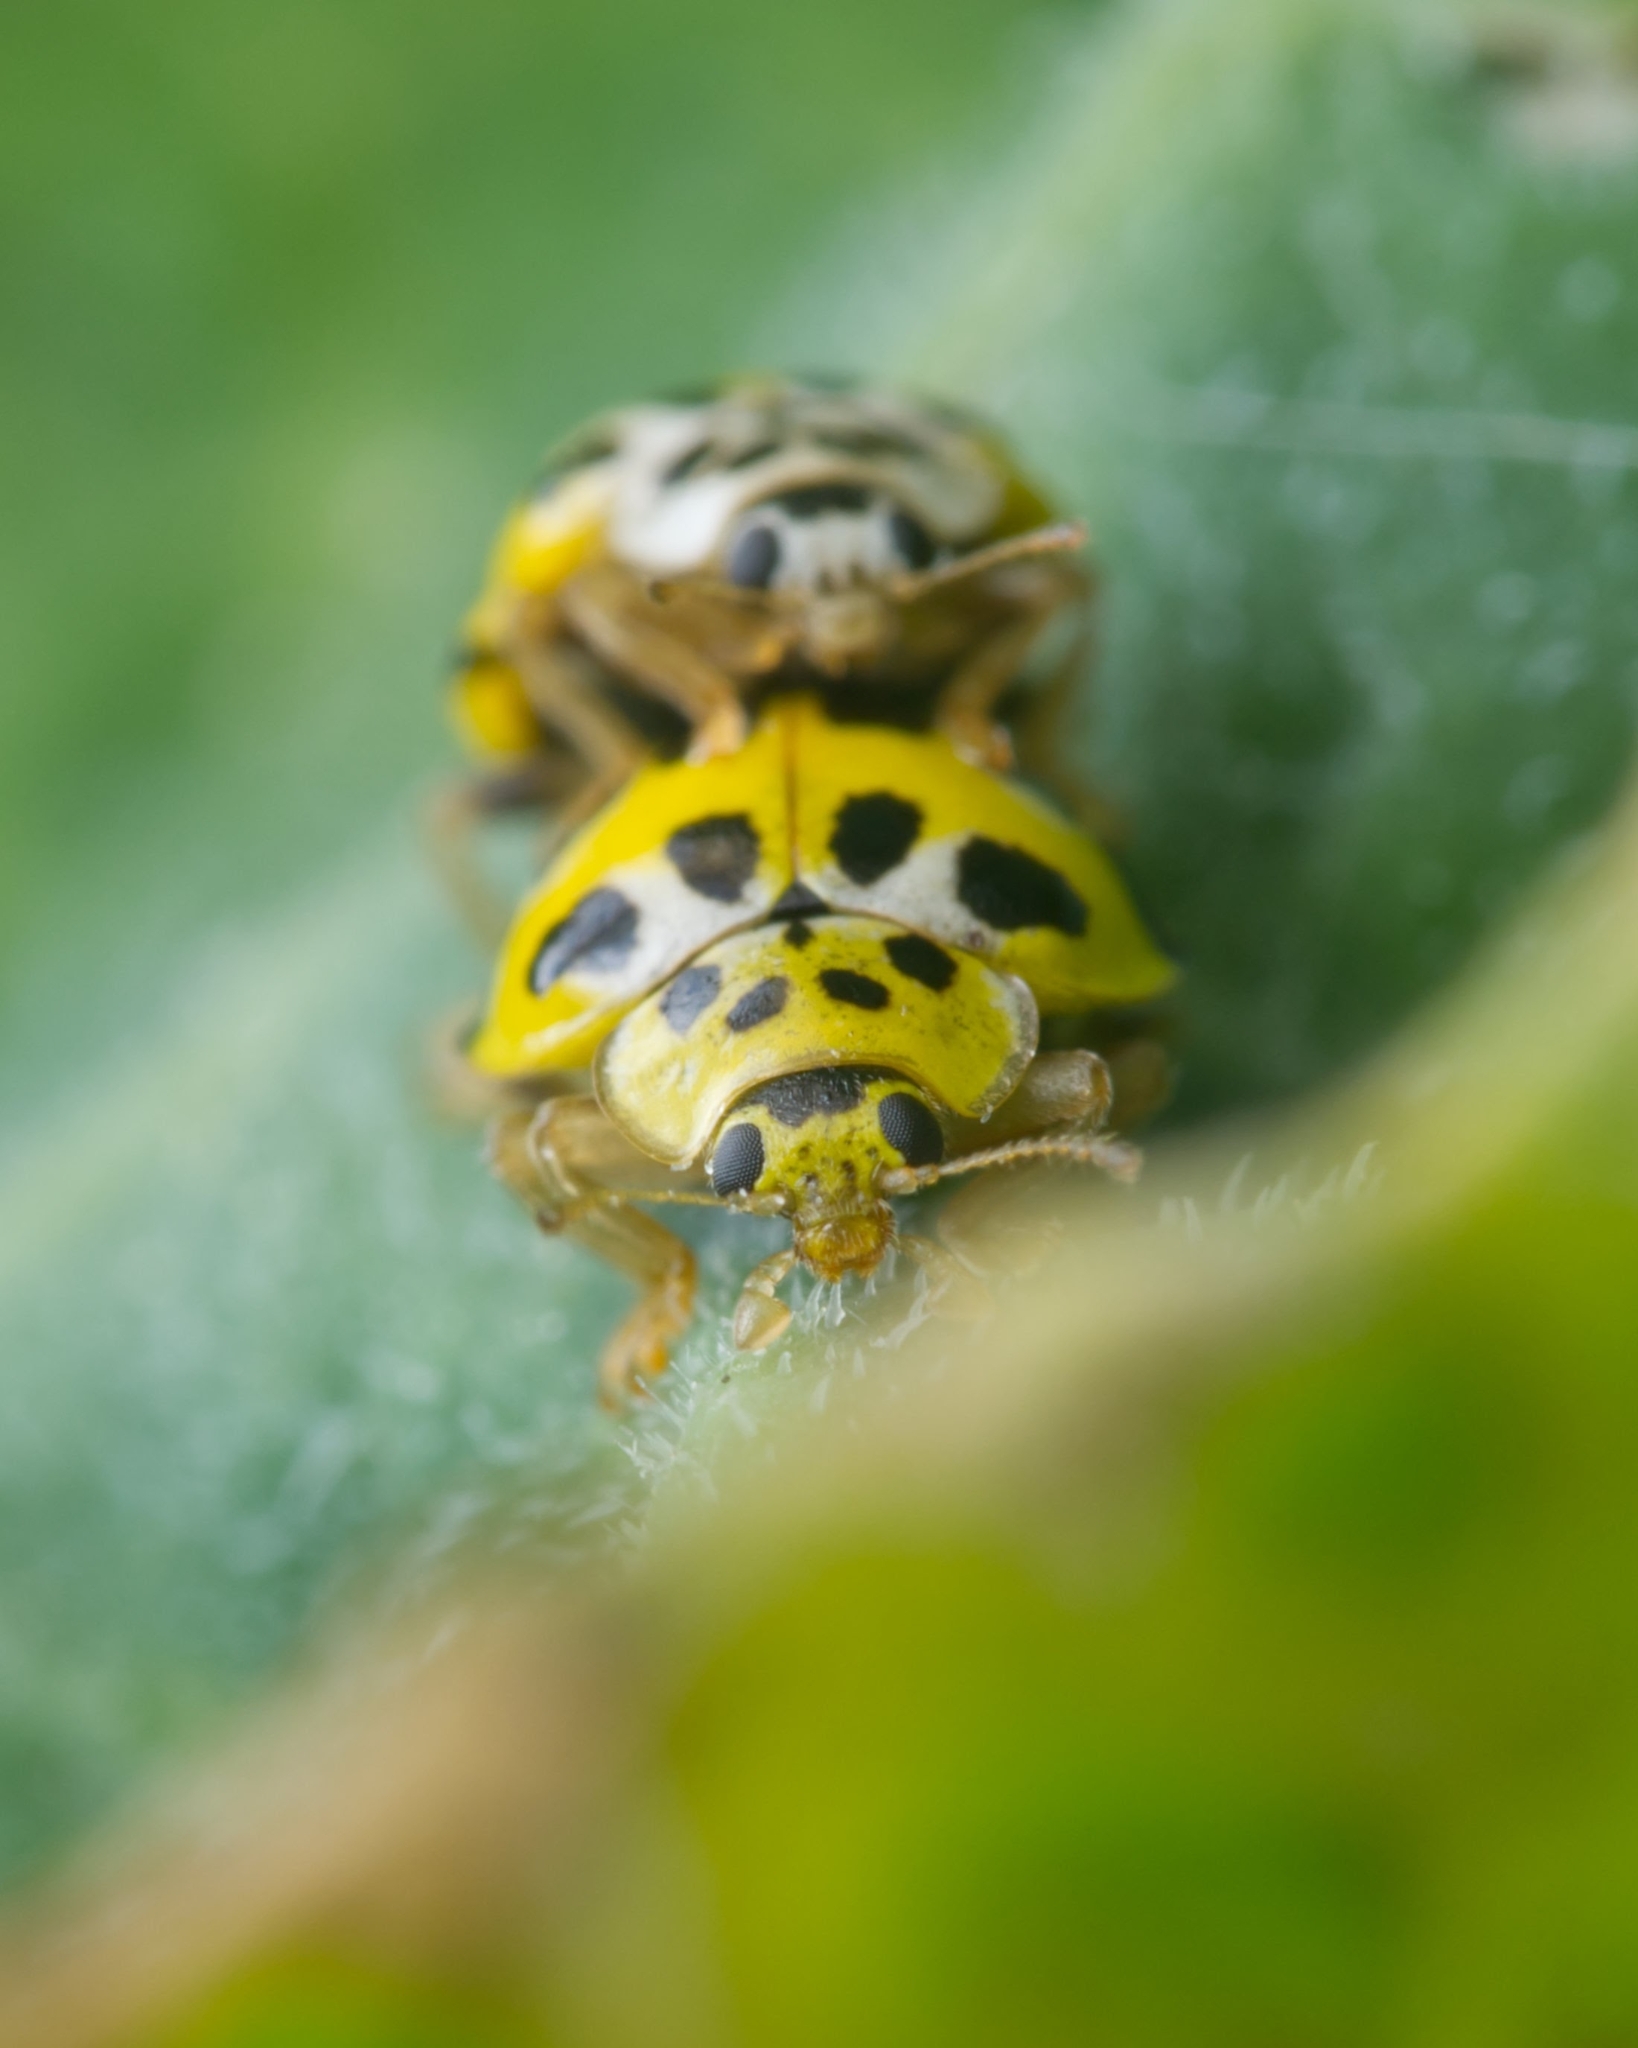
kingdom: Animalia
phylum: Arthropoda
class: Insecta
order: Coleoptera
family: Coccinellidae
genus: Psyllobora
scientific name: Psyllobora variegata
